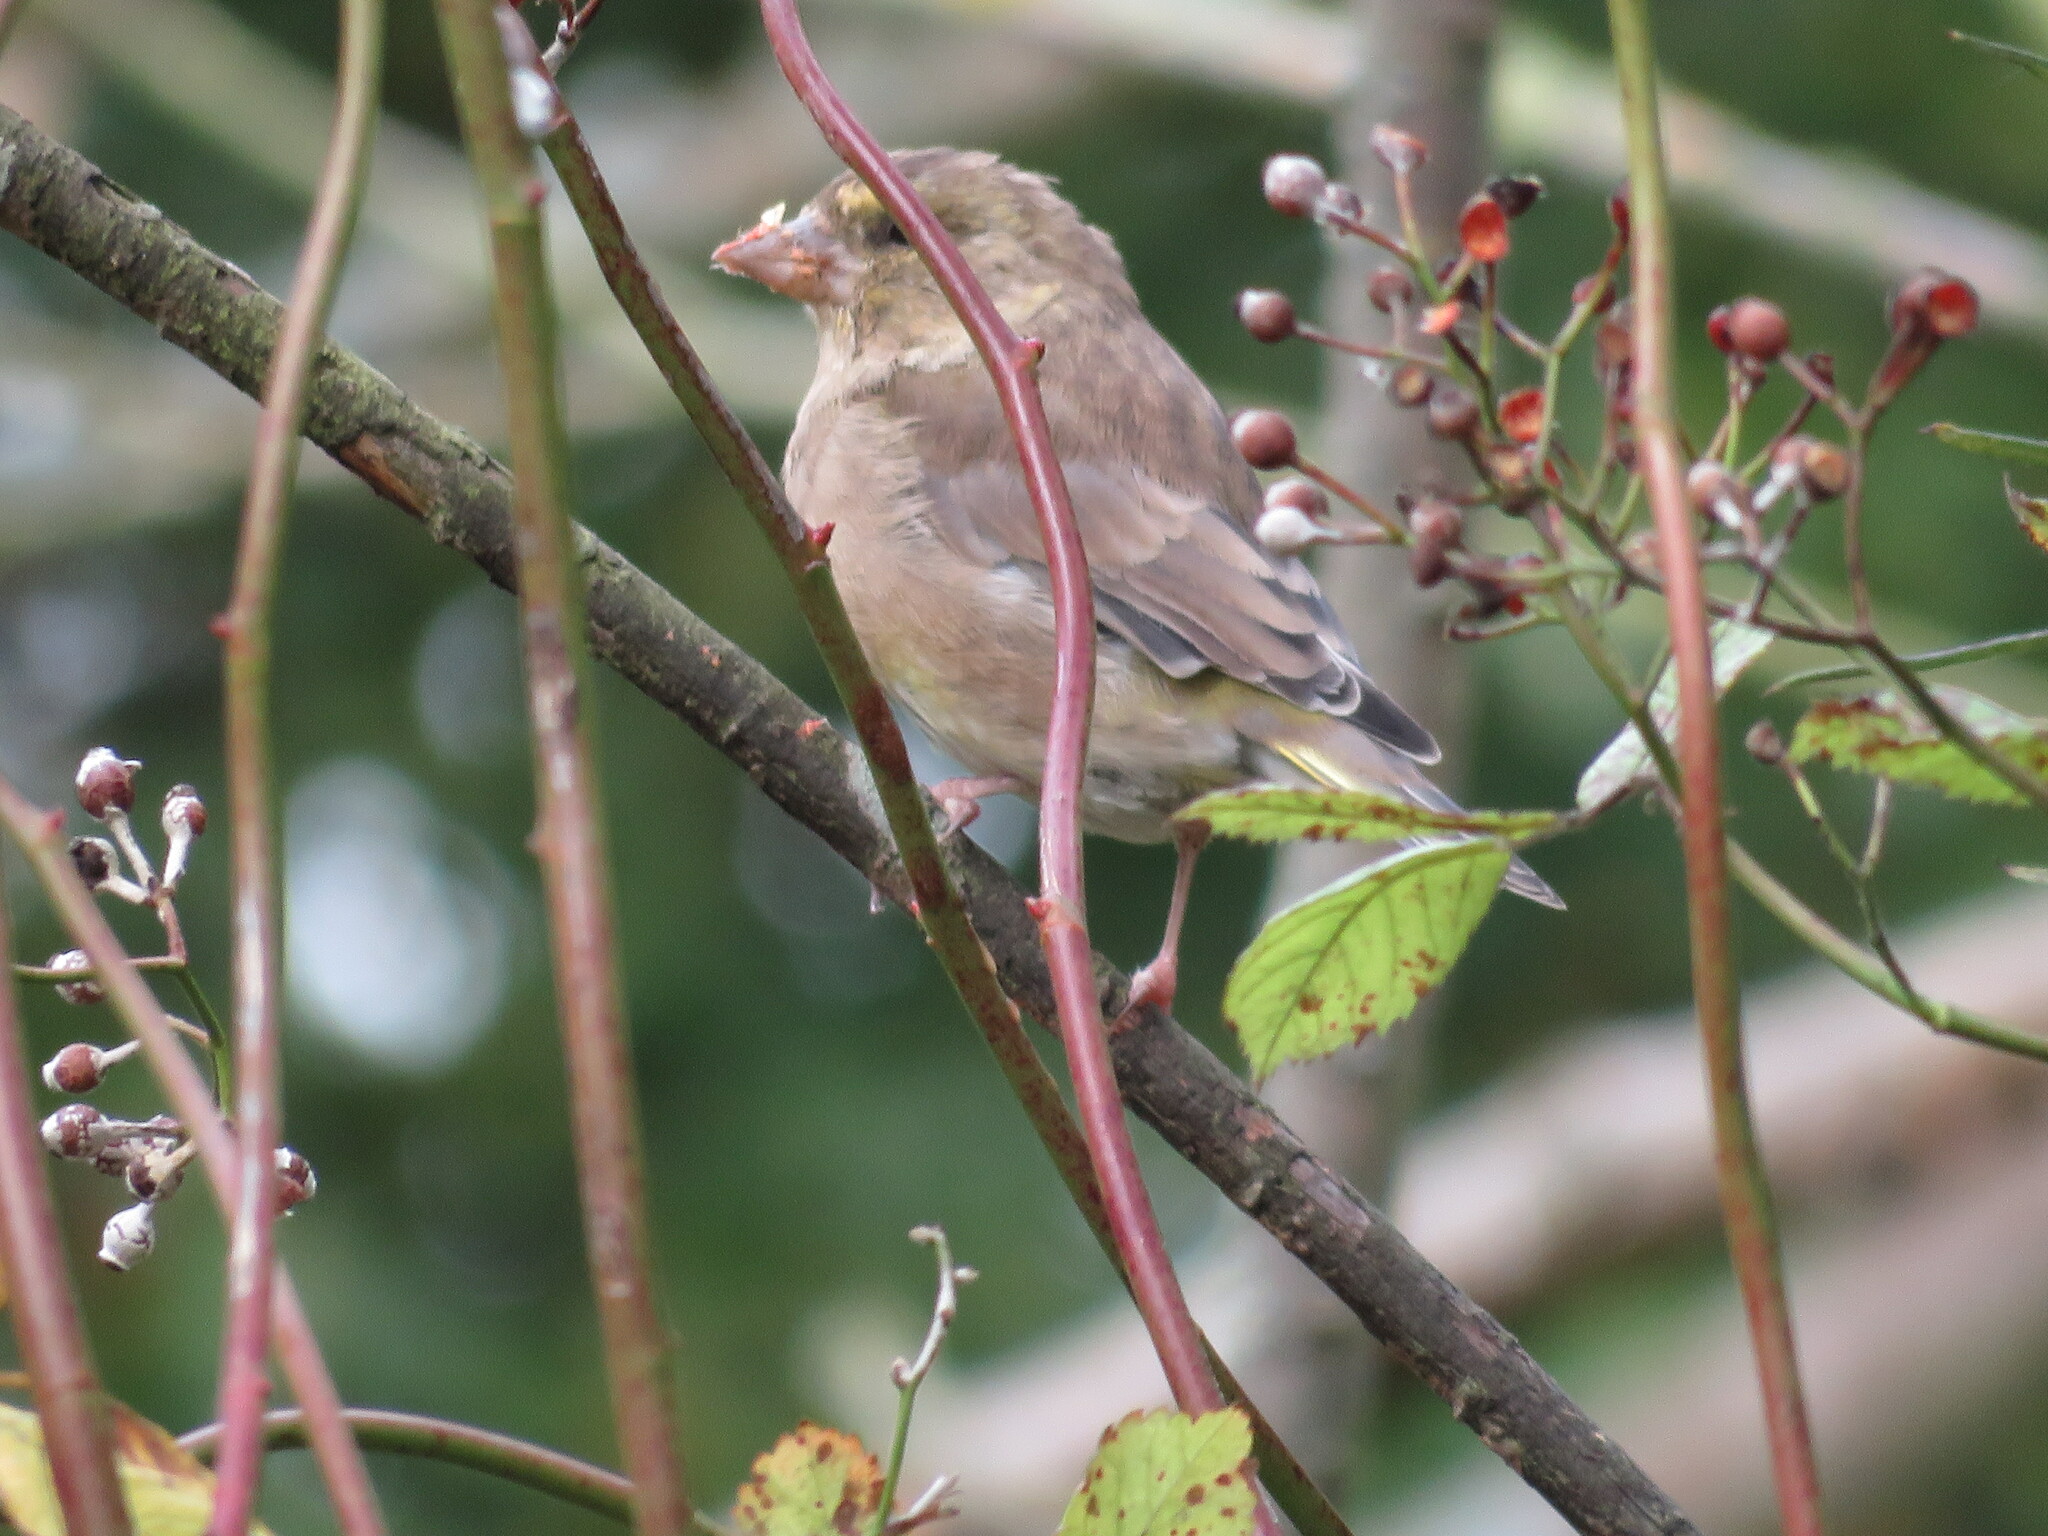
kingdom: Plantae
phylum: Tracheophyta
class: Liliopsida
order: Poales
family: Poaceae
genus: Chloris
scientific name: Chloris chloris
